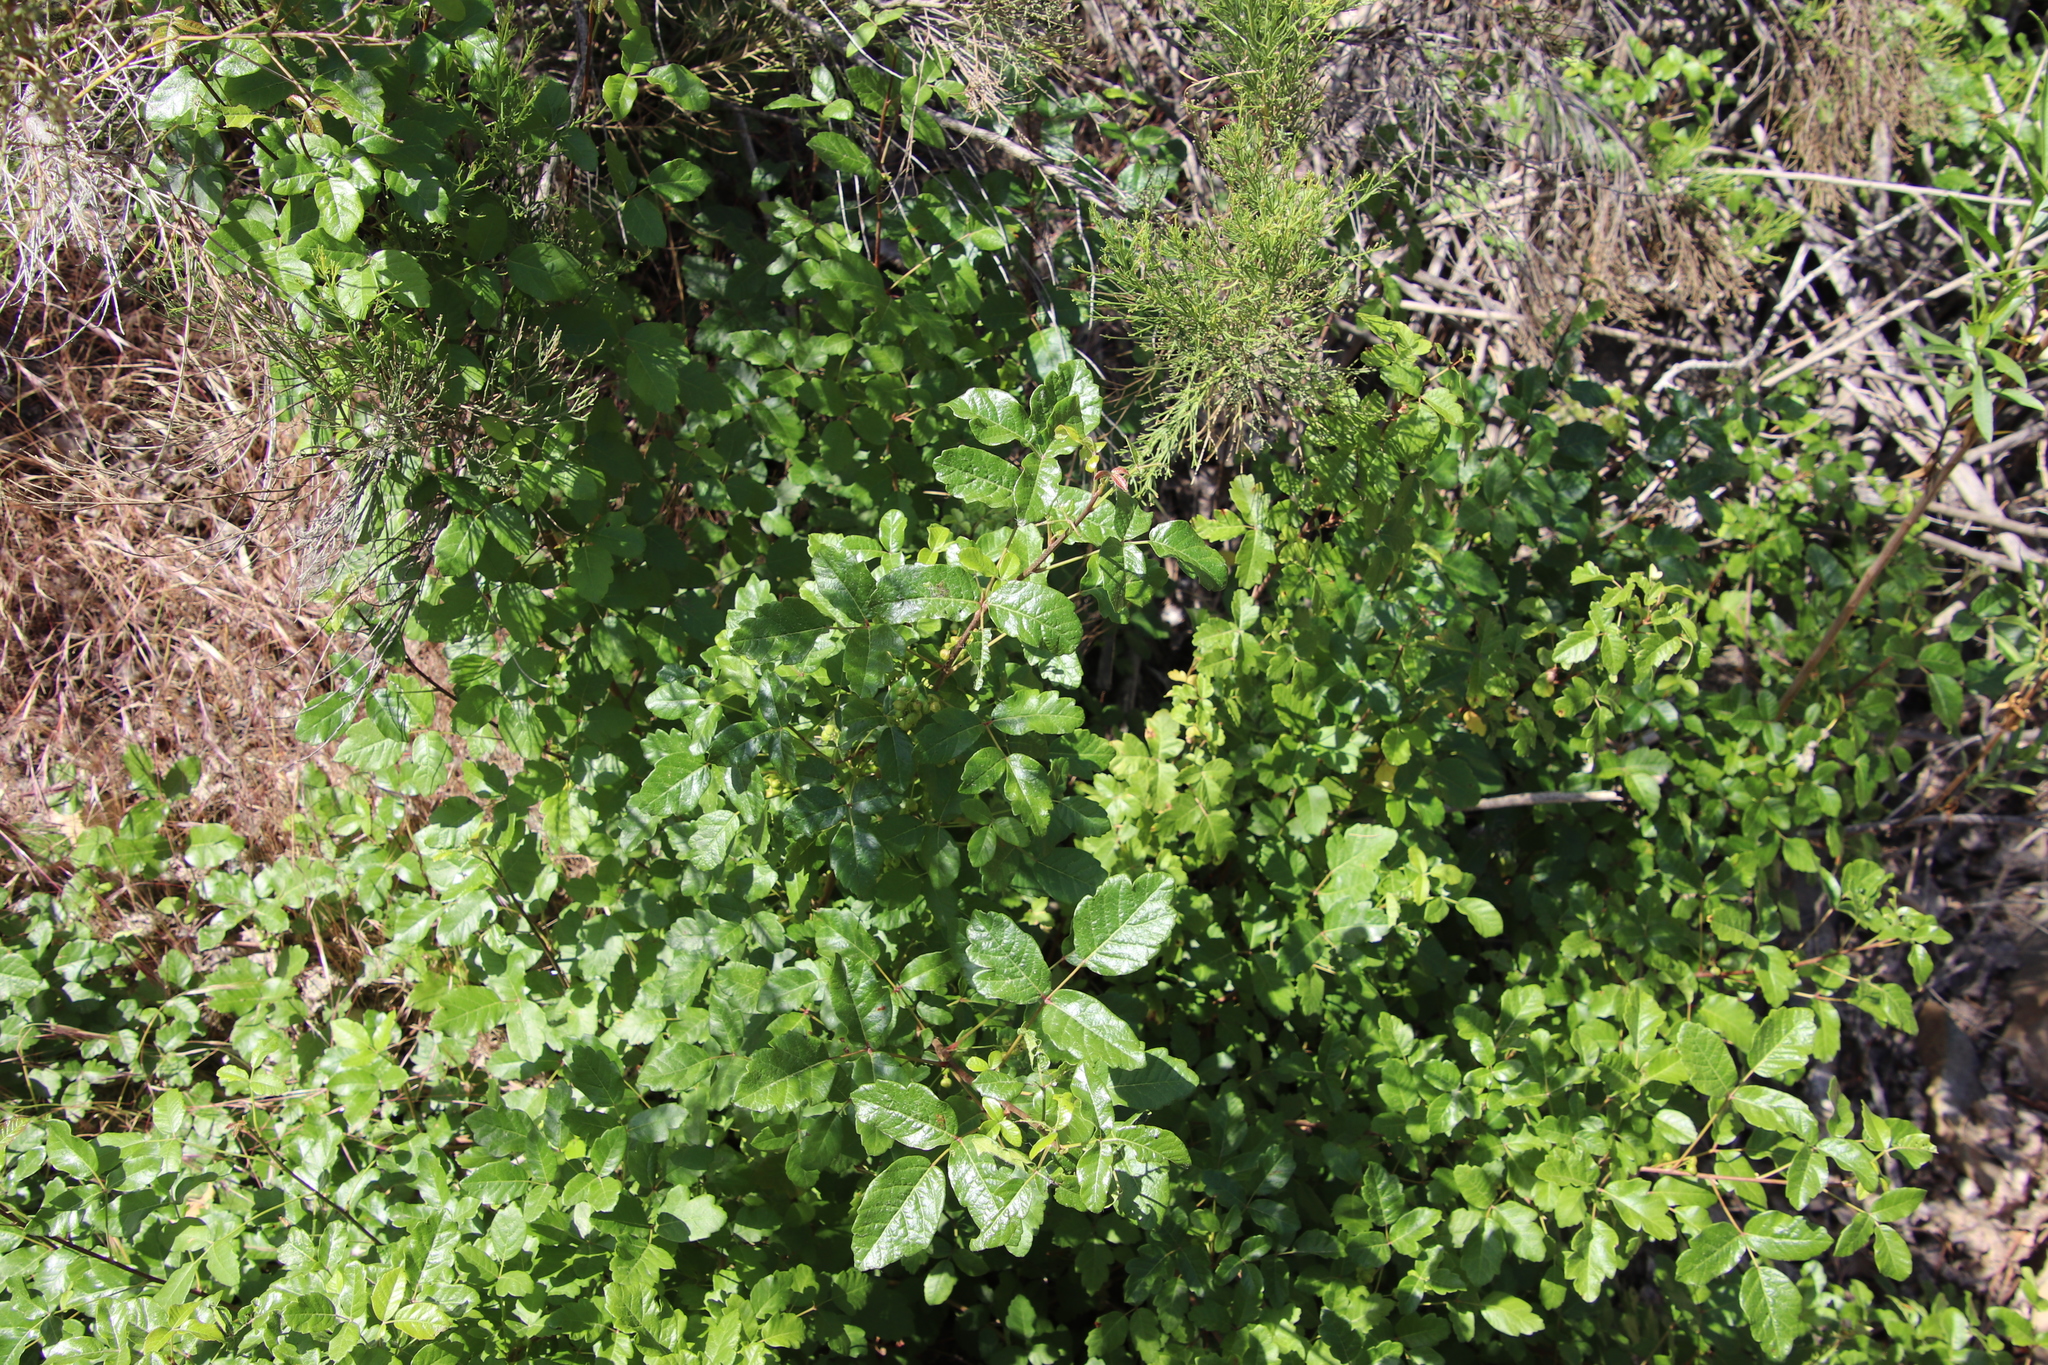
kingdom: Plantae
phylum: Tracheophyta
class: Magnoliopsida
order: Sapindales
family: Anacardiaceae
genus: Toxicodendron
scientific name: Toxicodendron diversilobum
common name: Pacific poison-oak
